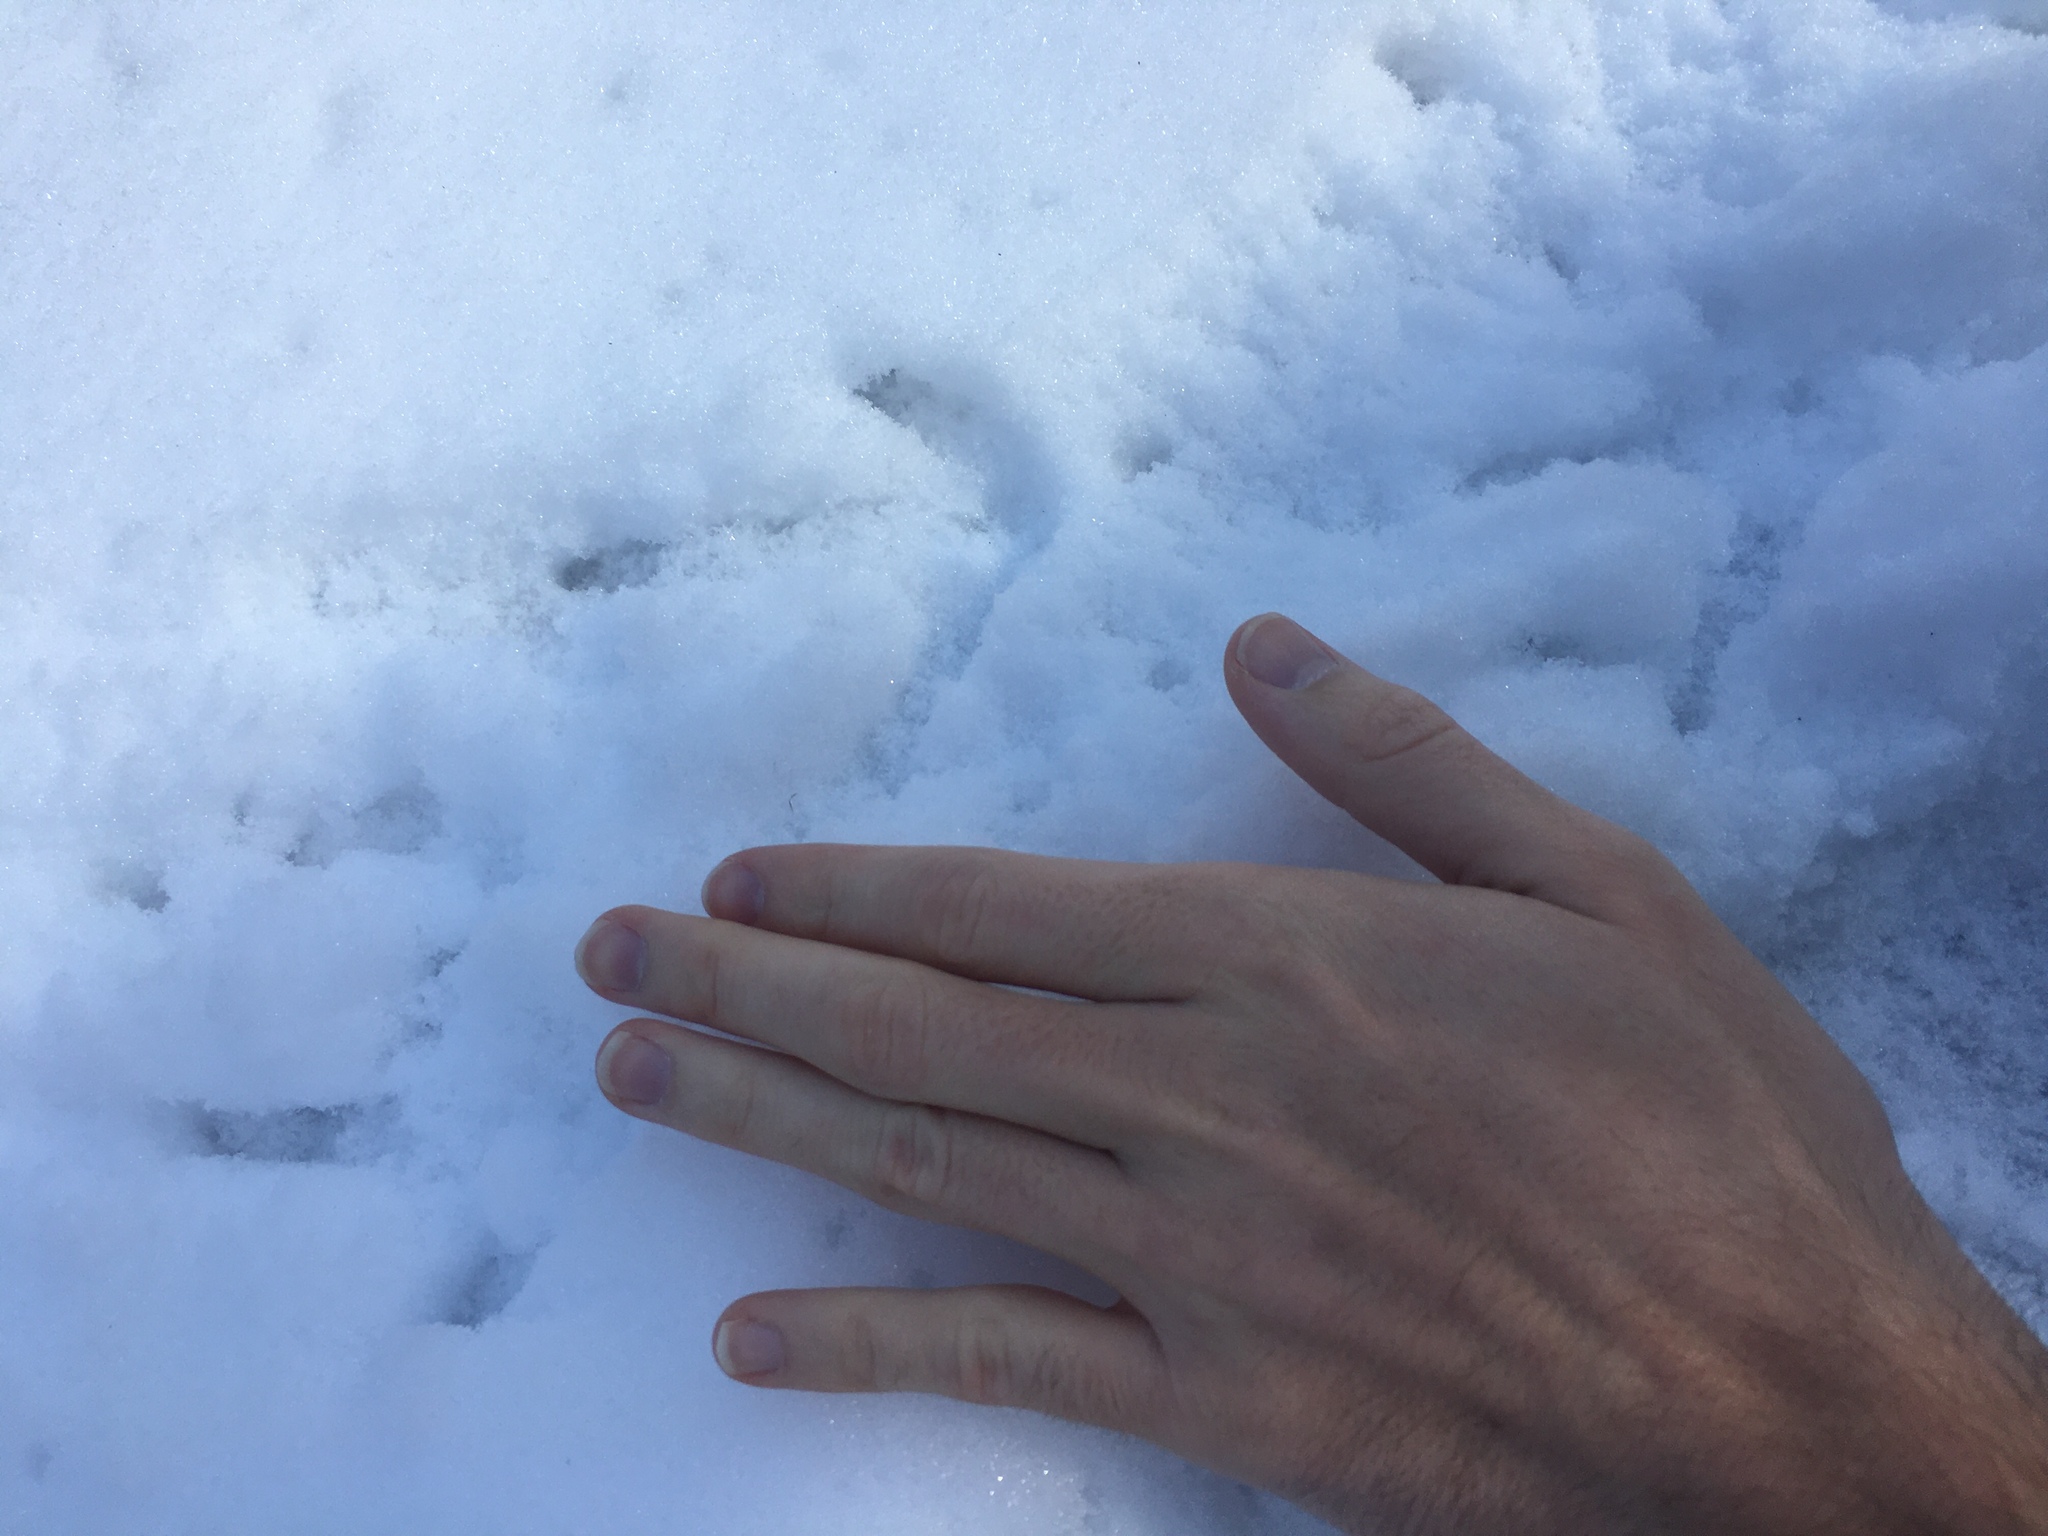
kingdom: Animalia
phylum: Chordata
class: Aves
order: Galliformes
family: Phasianidae
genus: Bonasa
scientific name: Bonasa umbellus
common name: Ruffed grouse
